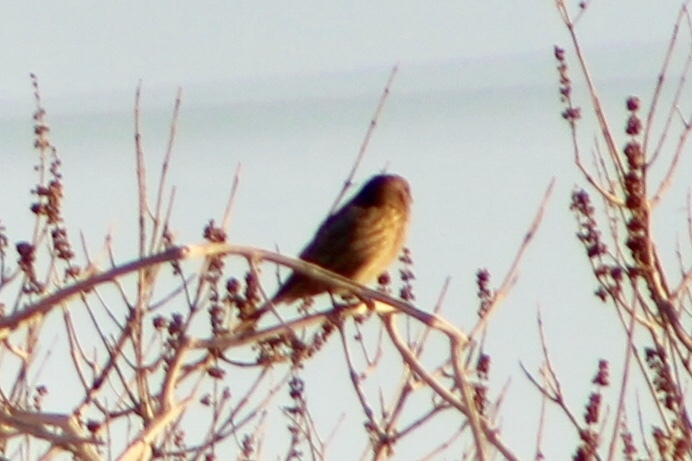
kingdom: Animalia
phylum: Chordata
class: Aves
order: Passeriformes
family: Fringillidae
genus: Haemorhous
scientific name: Haemorhous mexicanus
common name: House finch
